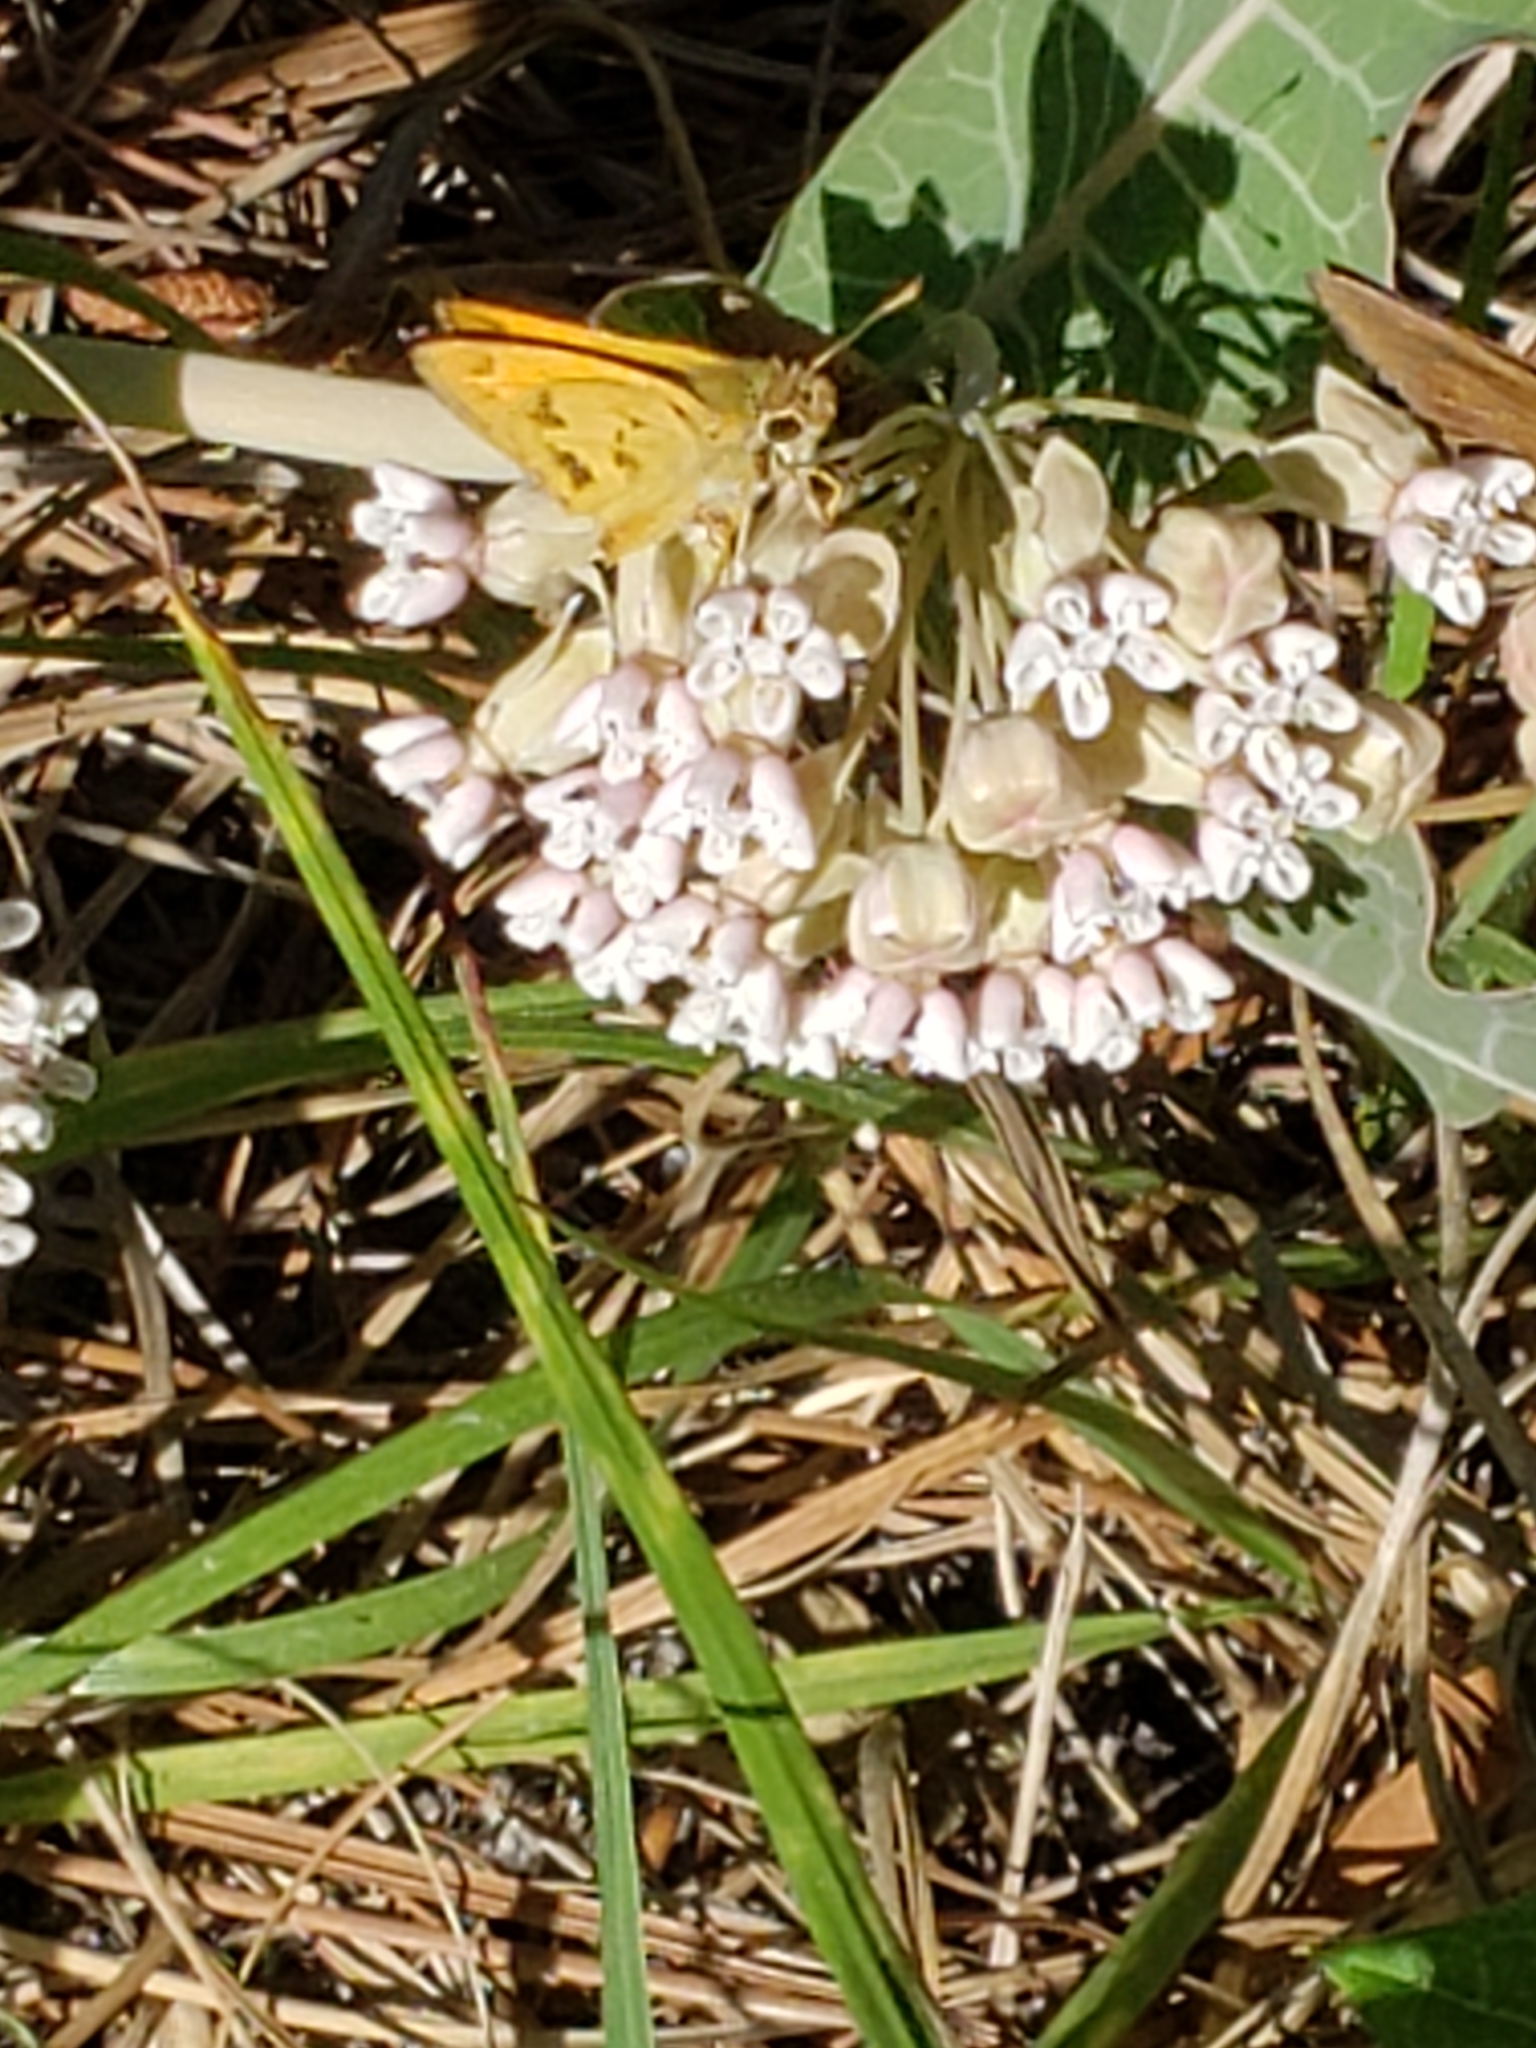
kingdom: Animalia
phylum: Arthropoda
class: Insecta
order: Lepidoptera
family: Hesperiidae
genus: Polites
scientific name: Polites vibex
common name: Whirlabout
